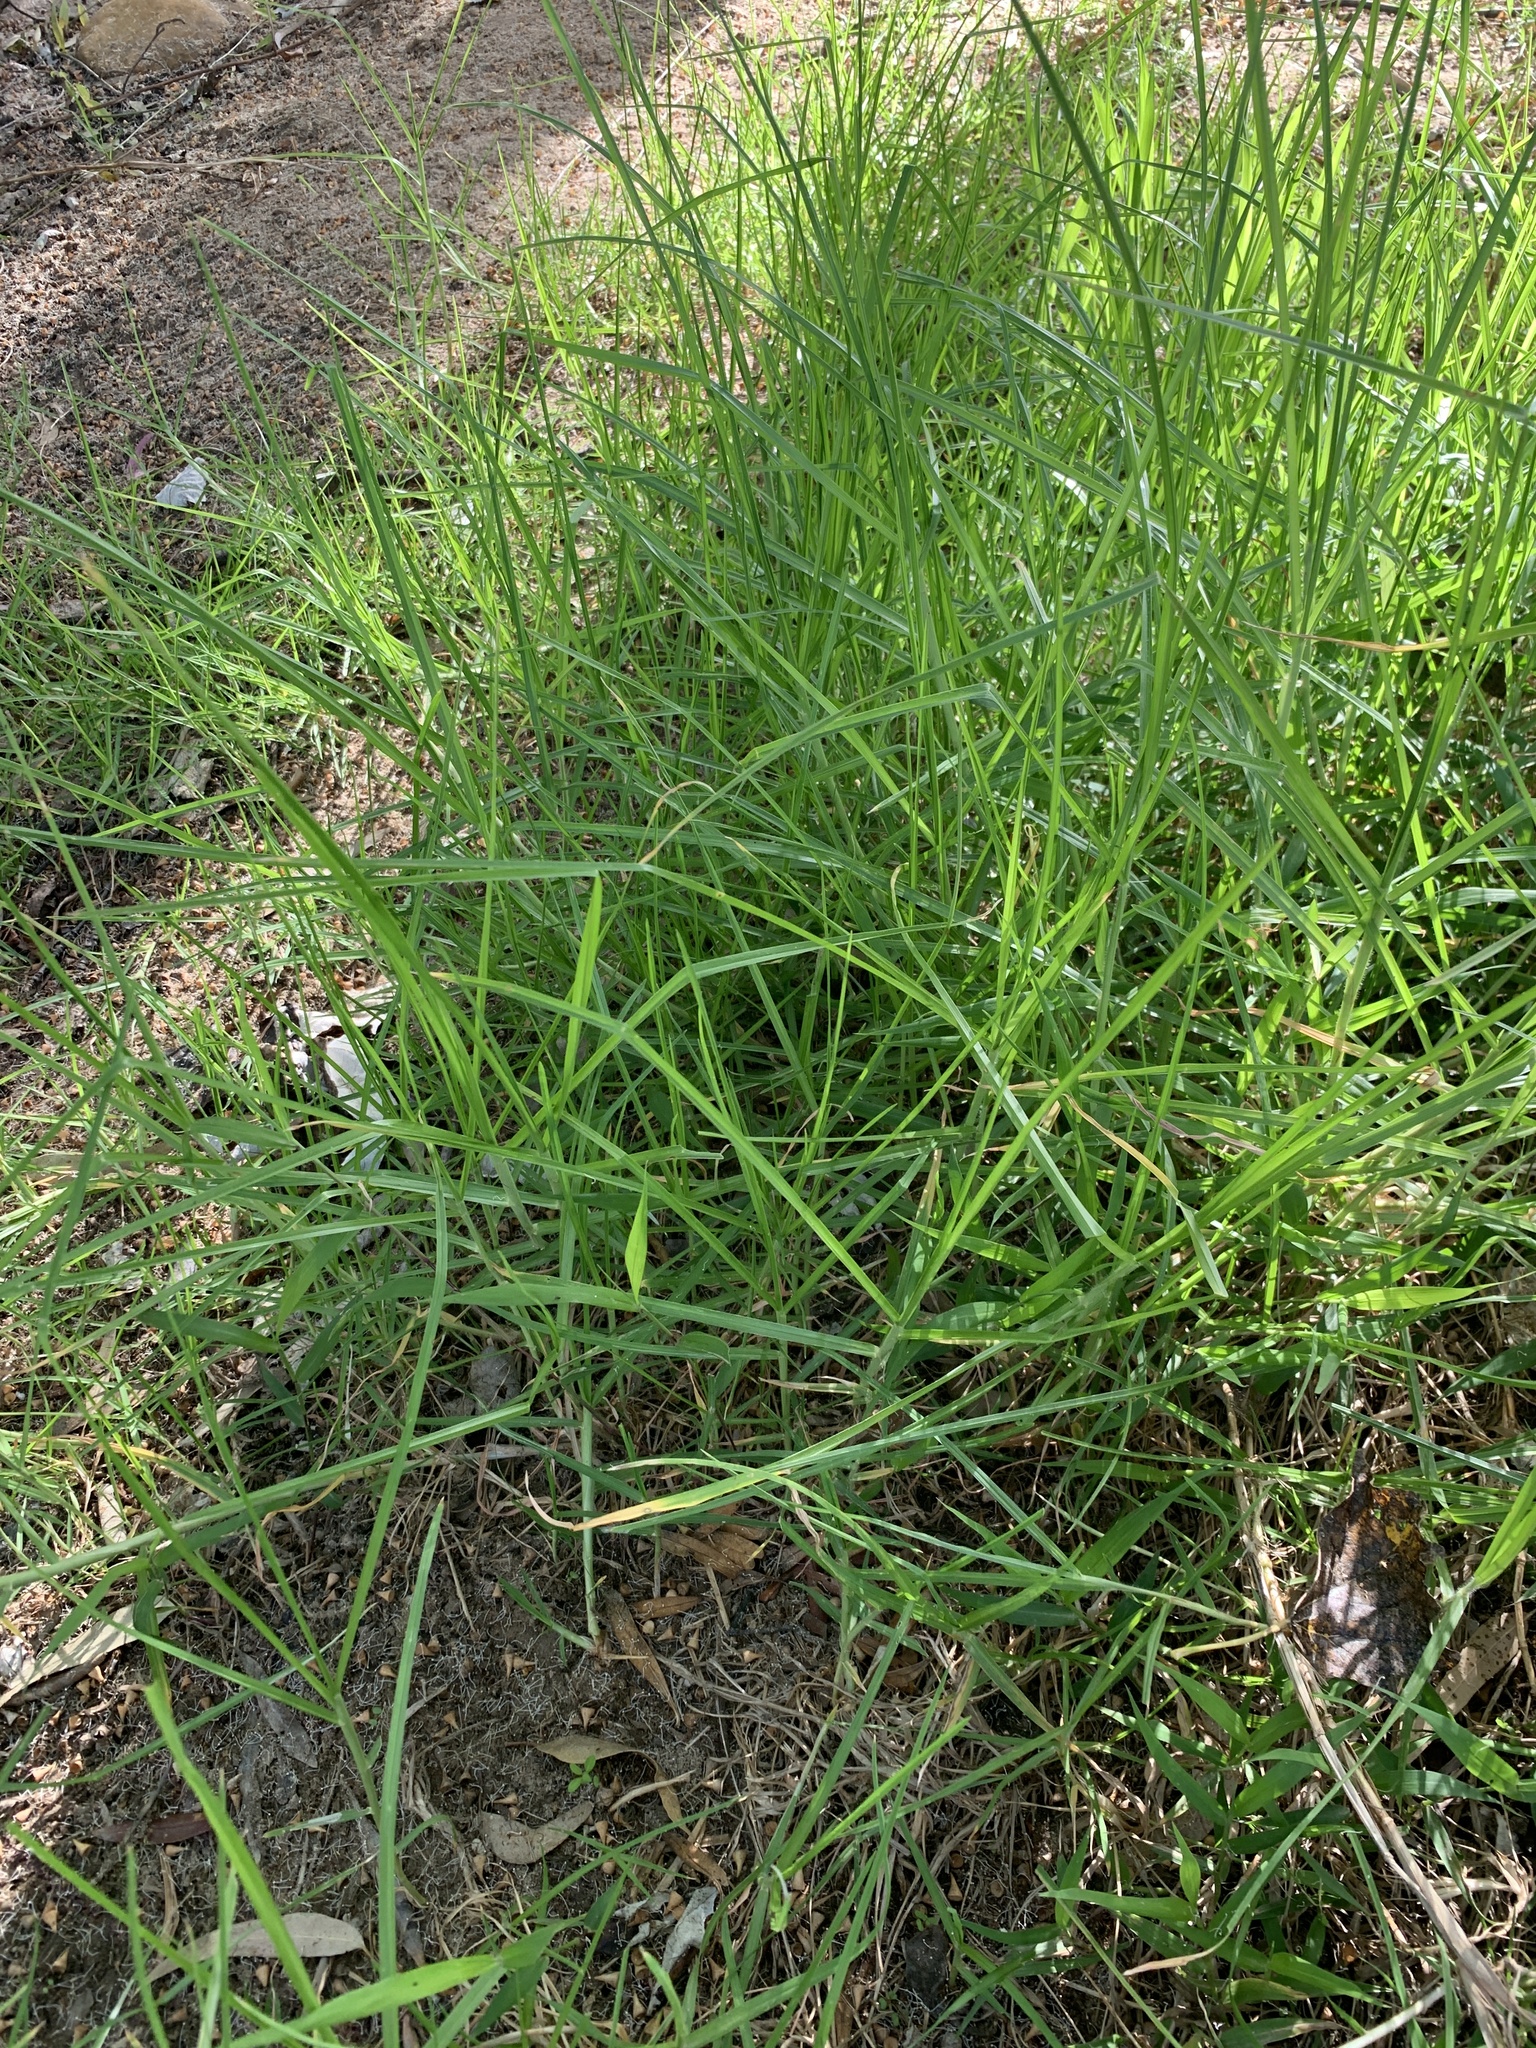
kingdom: Plantae
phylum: Tracheophyta
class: Liliopsida
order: Poales
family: Poaceae
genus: Cenchrus
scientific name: Cenchrus clandestinus
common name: Kikuyugrass
